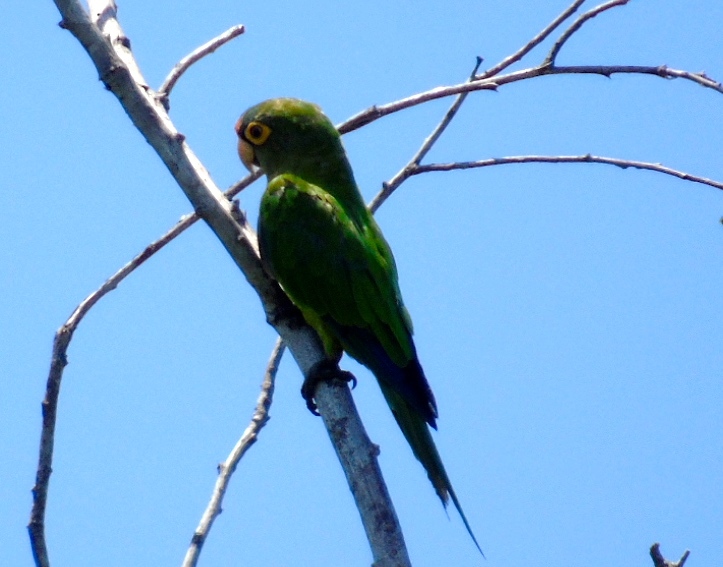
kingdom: Animalia
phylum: Chordata
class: Aves
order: Psittaciformes
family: Psittacidae
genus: Aratinga
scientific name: Aratinga canicularis
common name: Orange-fronted parakeet
